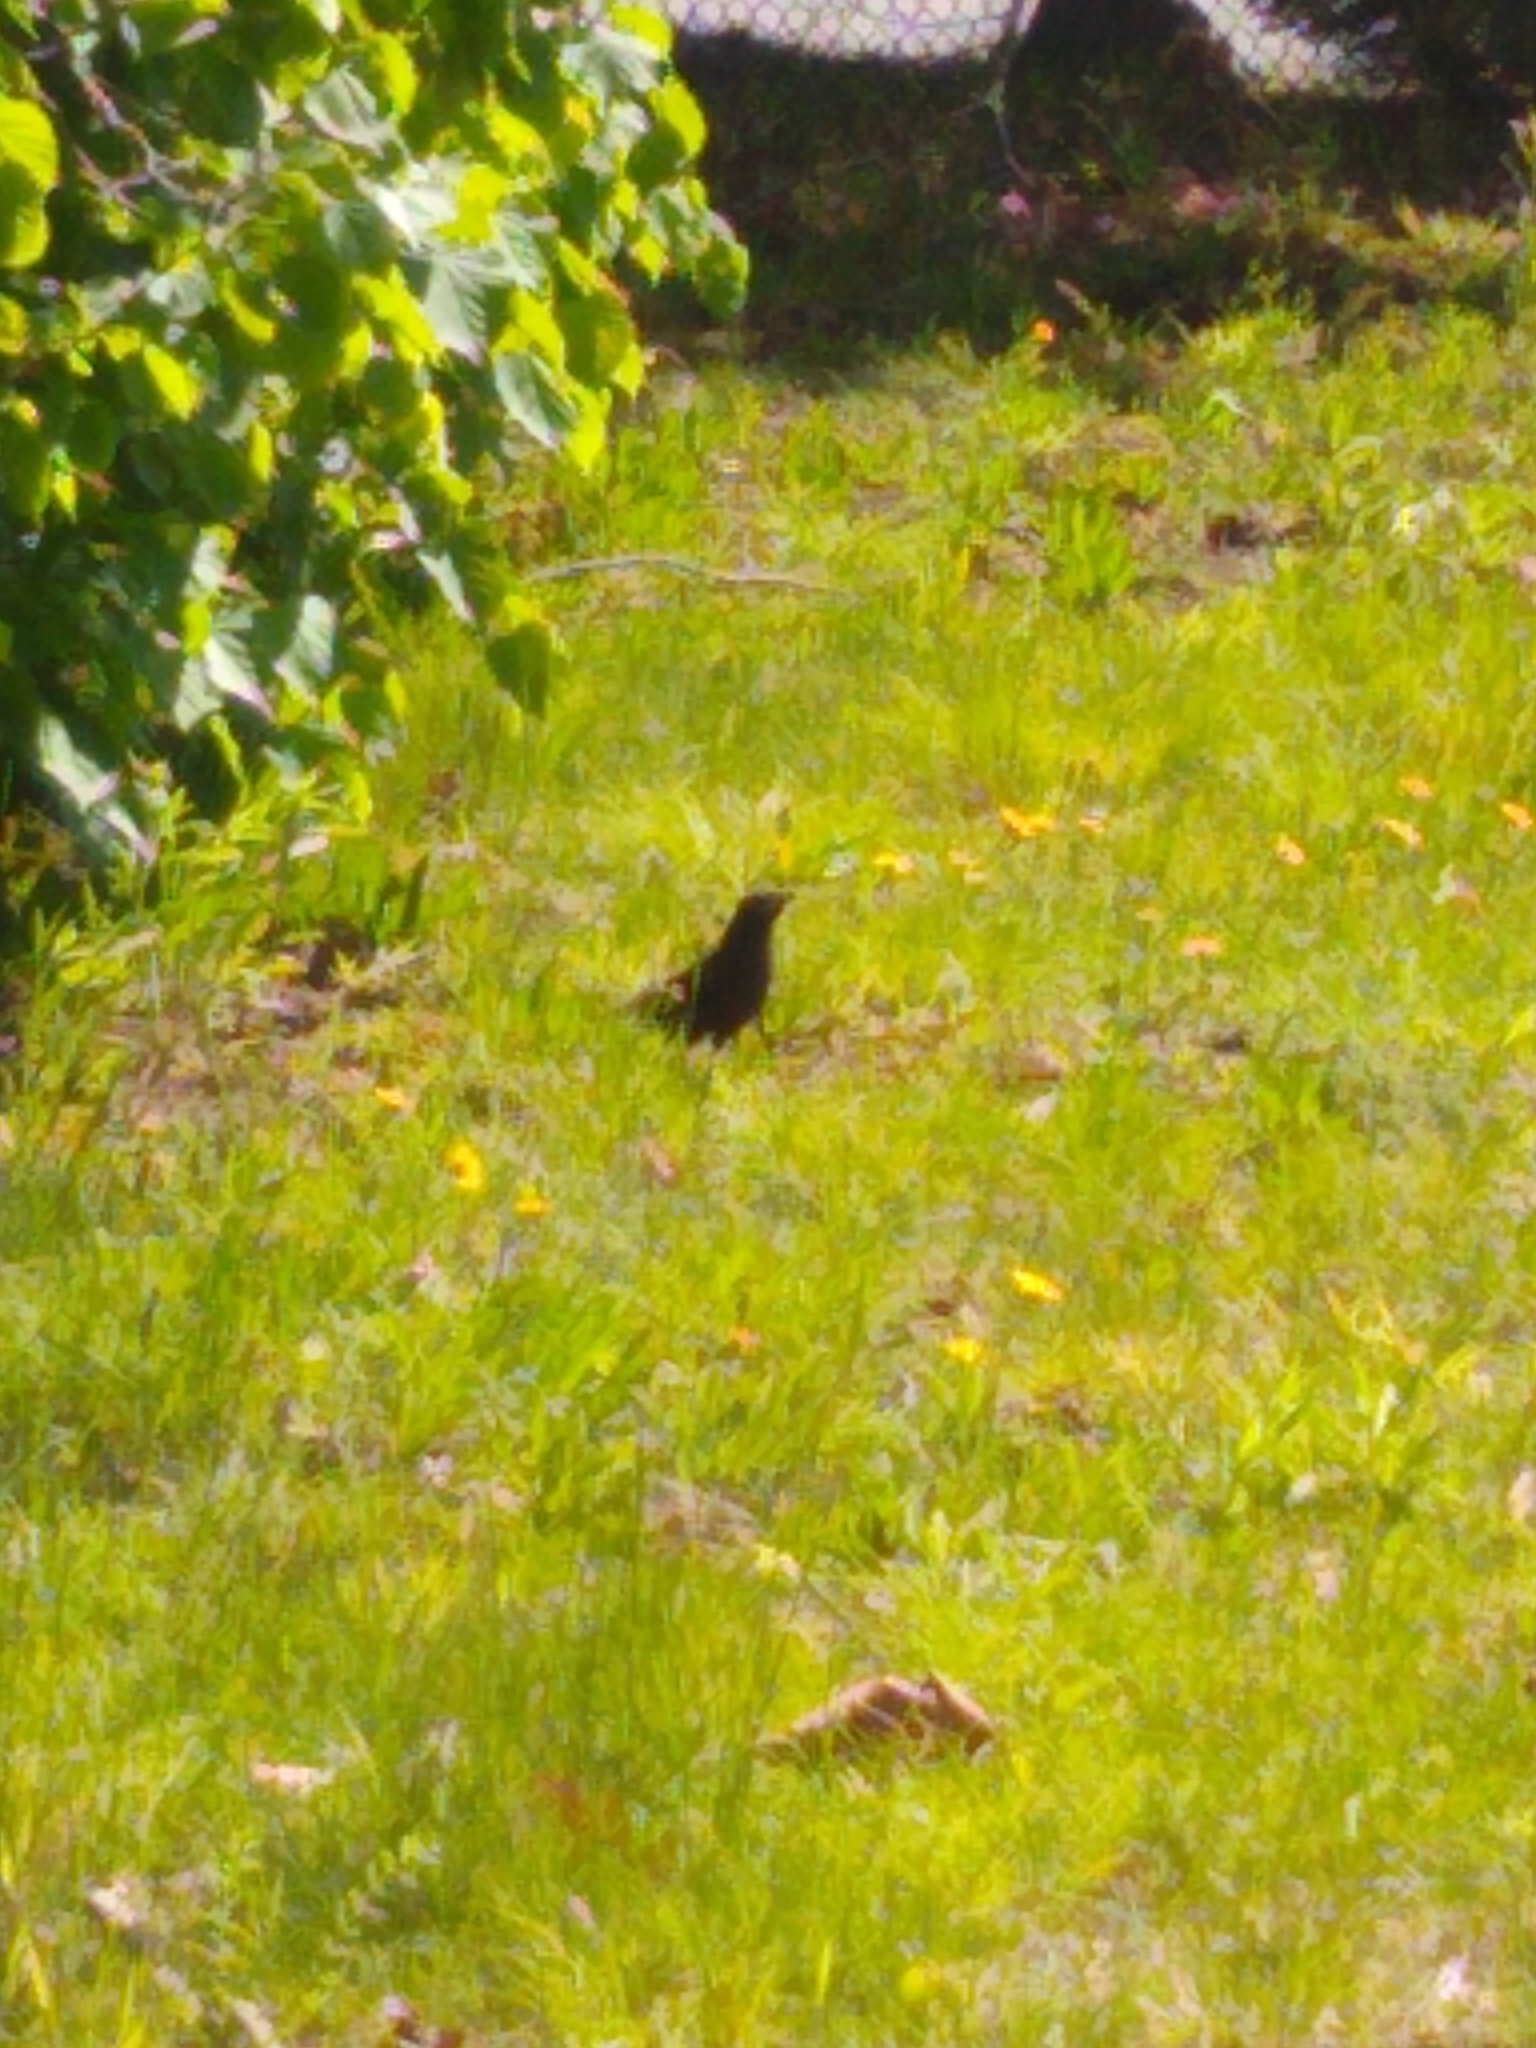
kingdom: Animalia
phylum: Chordata
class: Aves
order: Passeriformes
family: Icteridae
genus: Quiscalus
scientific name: Quiscalus quiscula
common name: Common grackle
